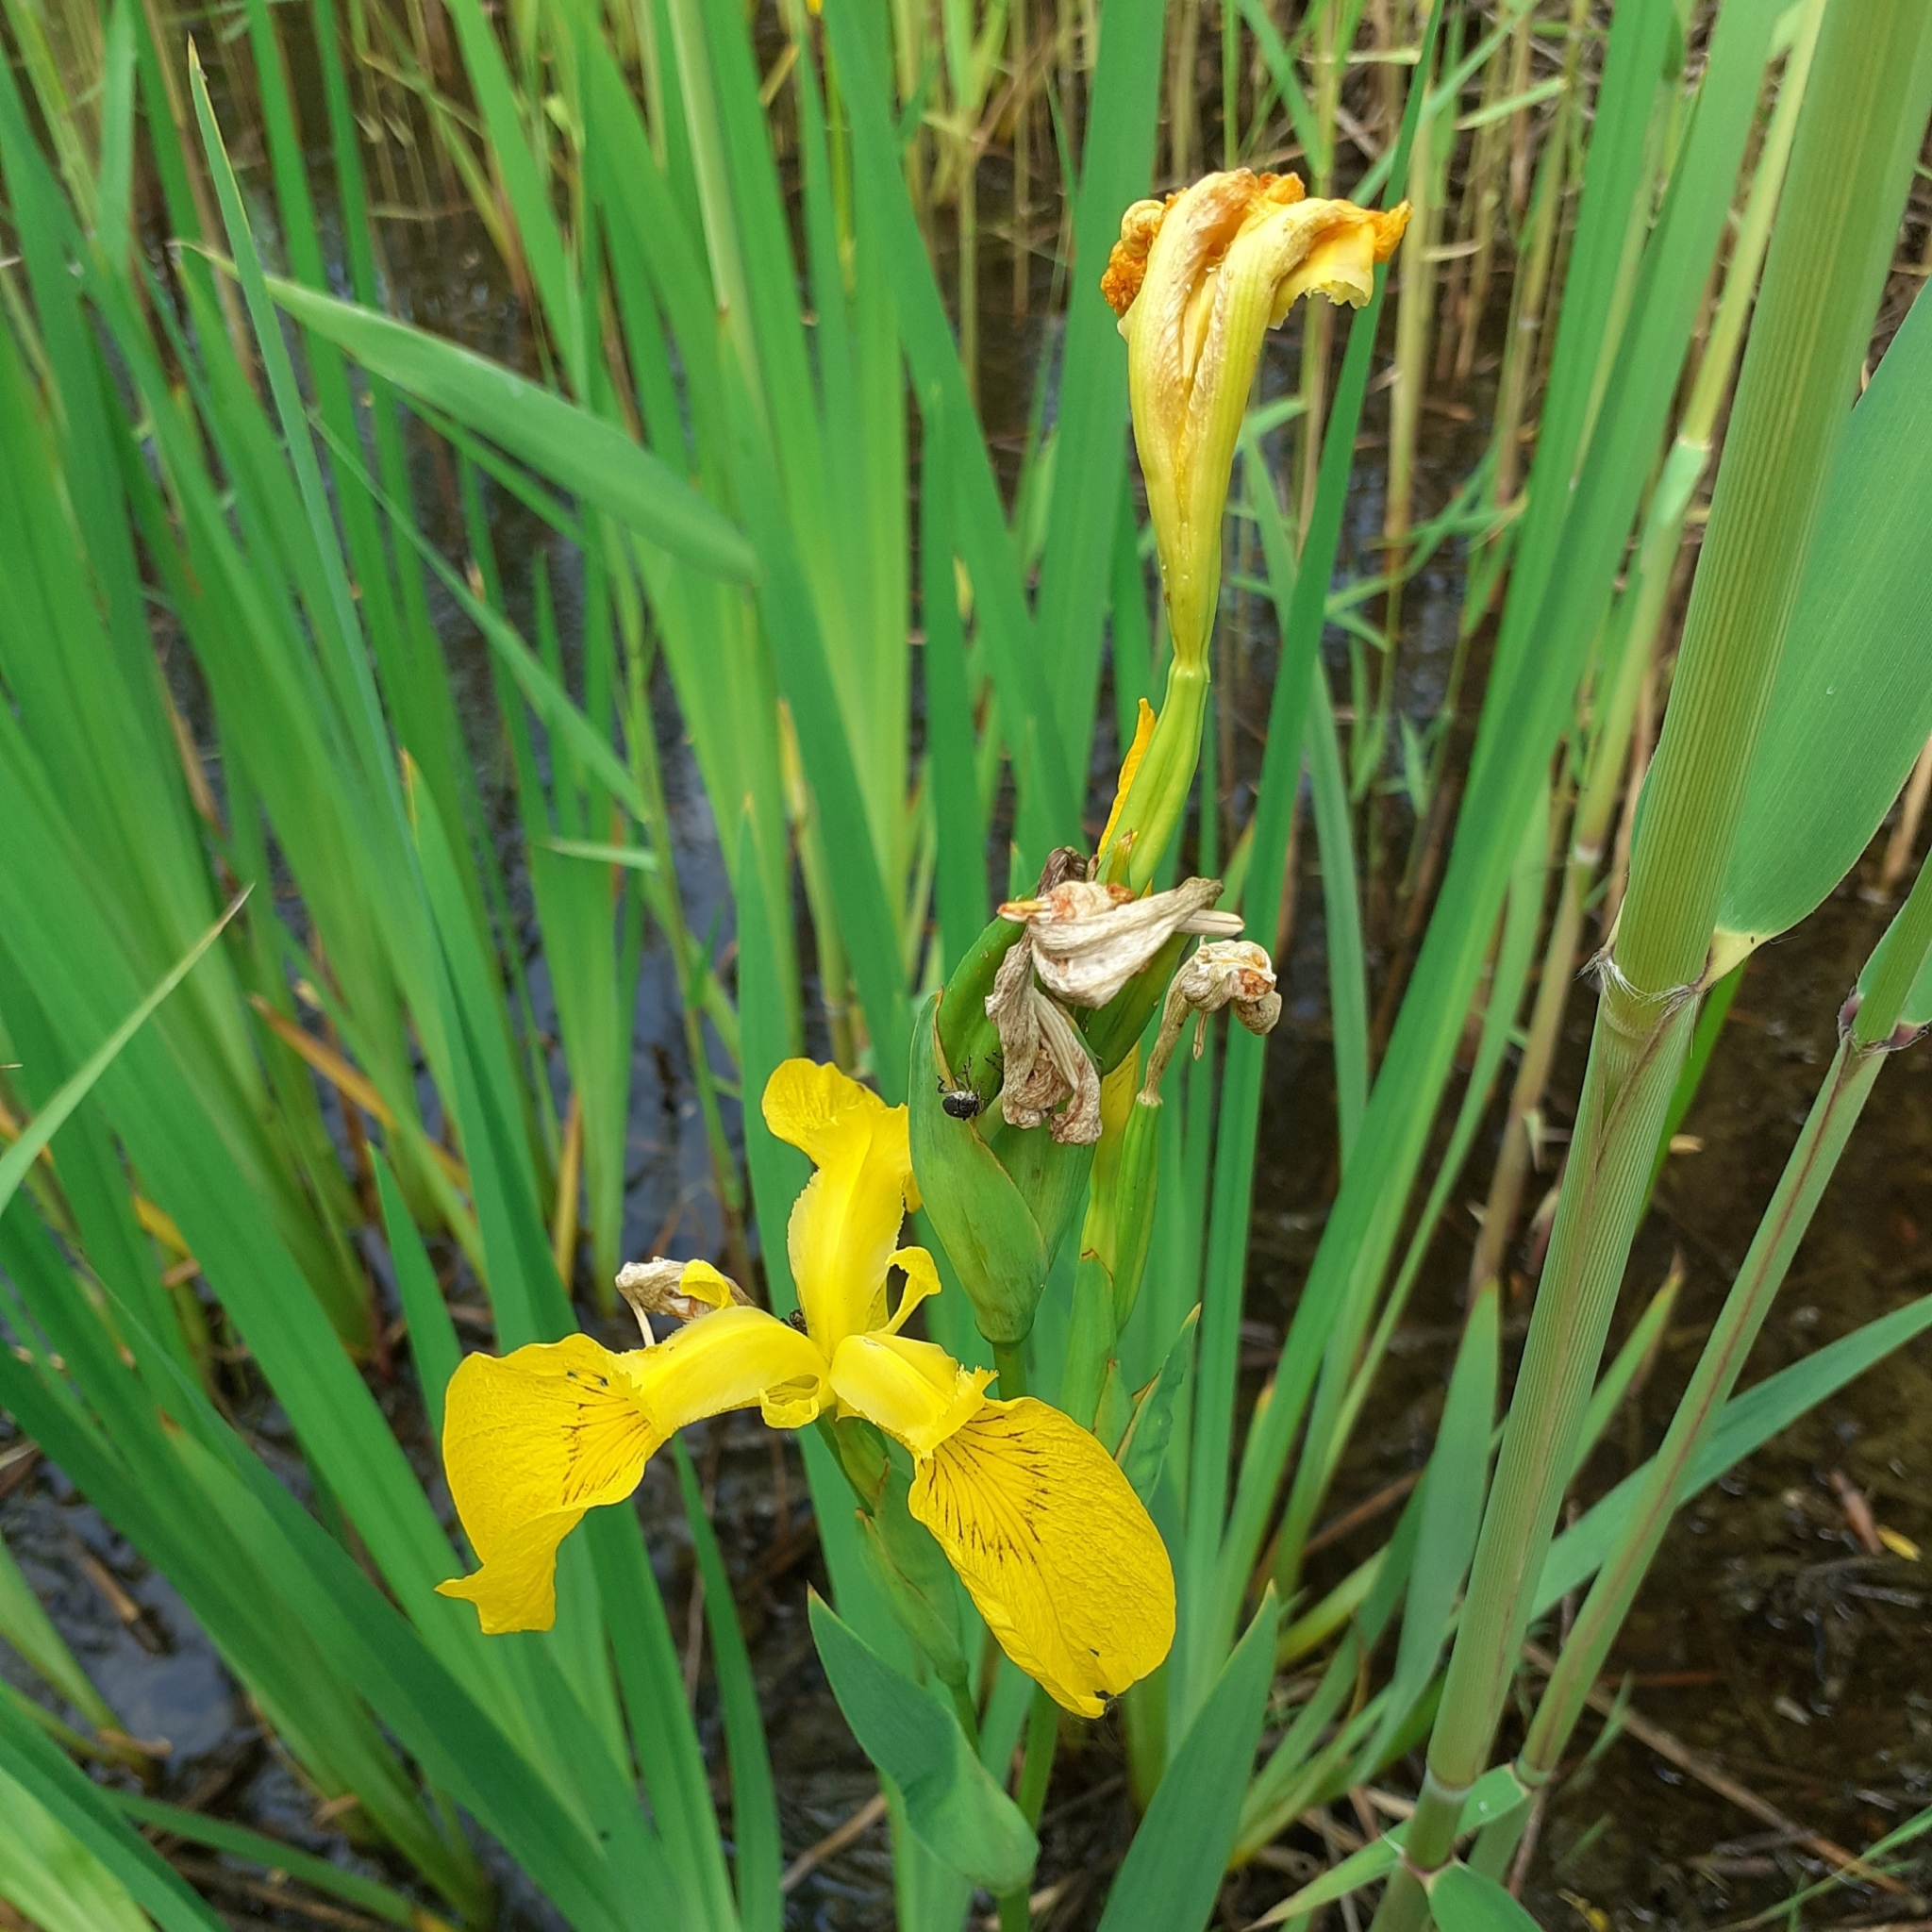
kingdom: Plantae
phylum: Tracheophyta
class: Liliopsida
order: Asparagales
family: Iridaceae
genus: Iris
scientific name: Iris pseudacorus
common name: Yellow flag
